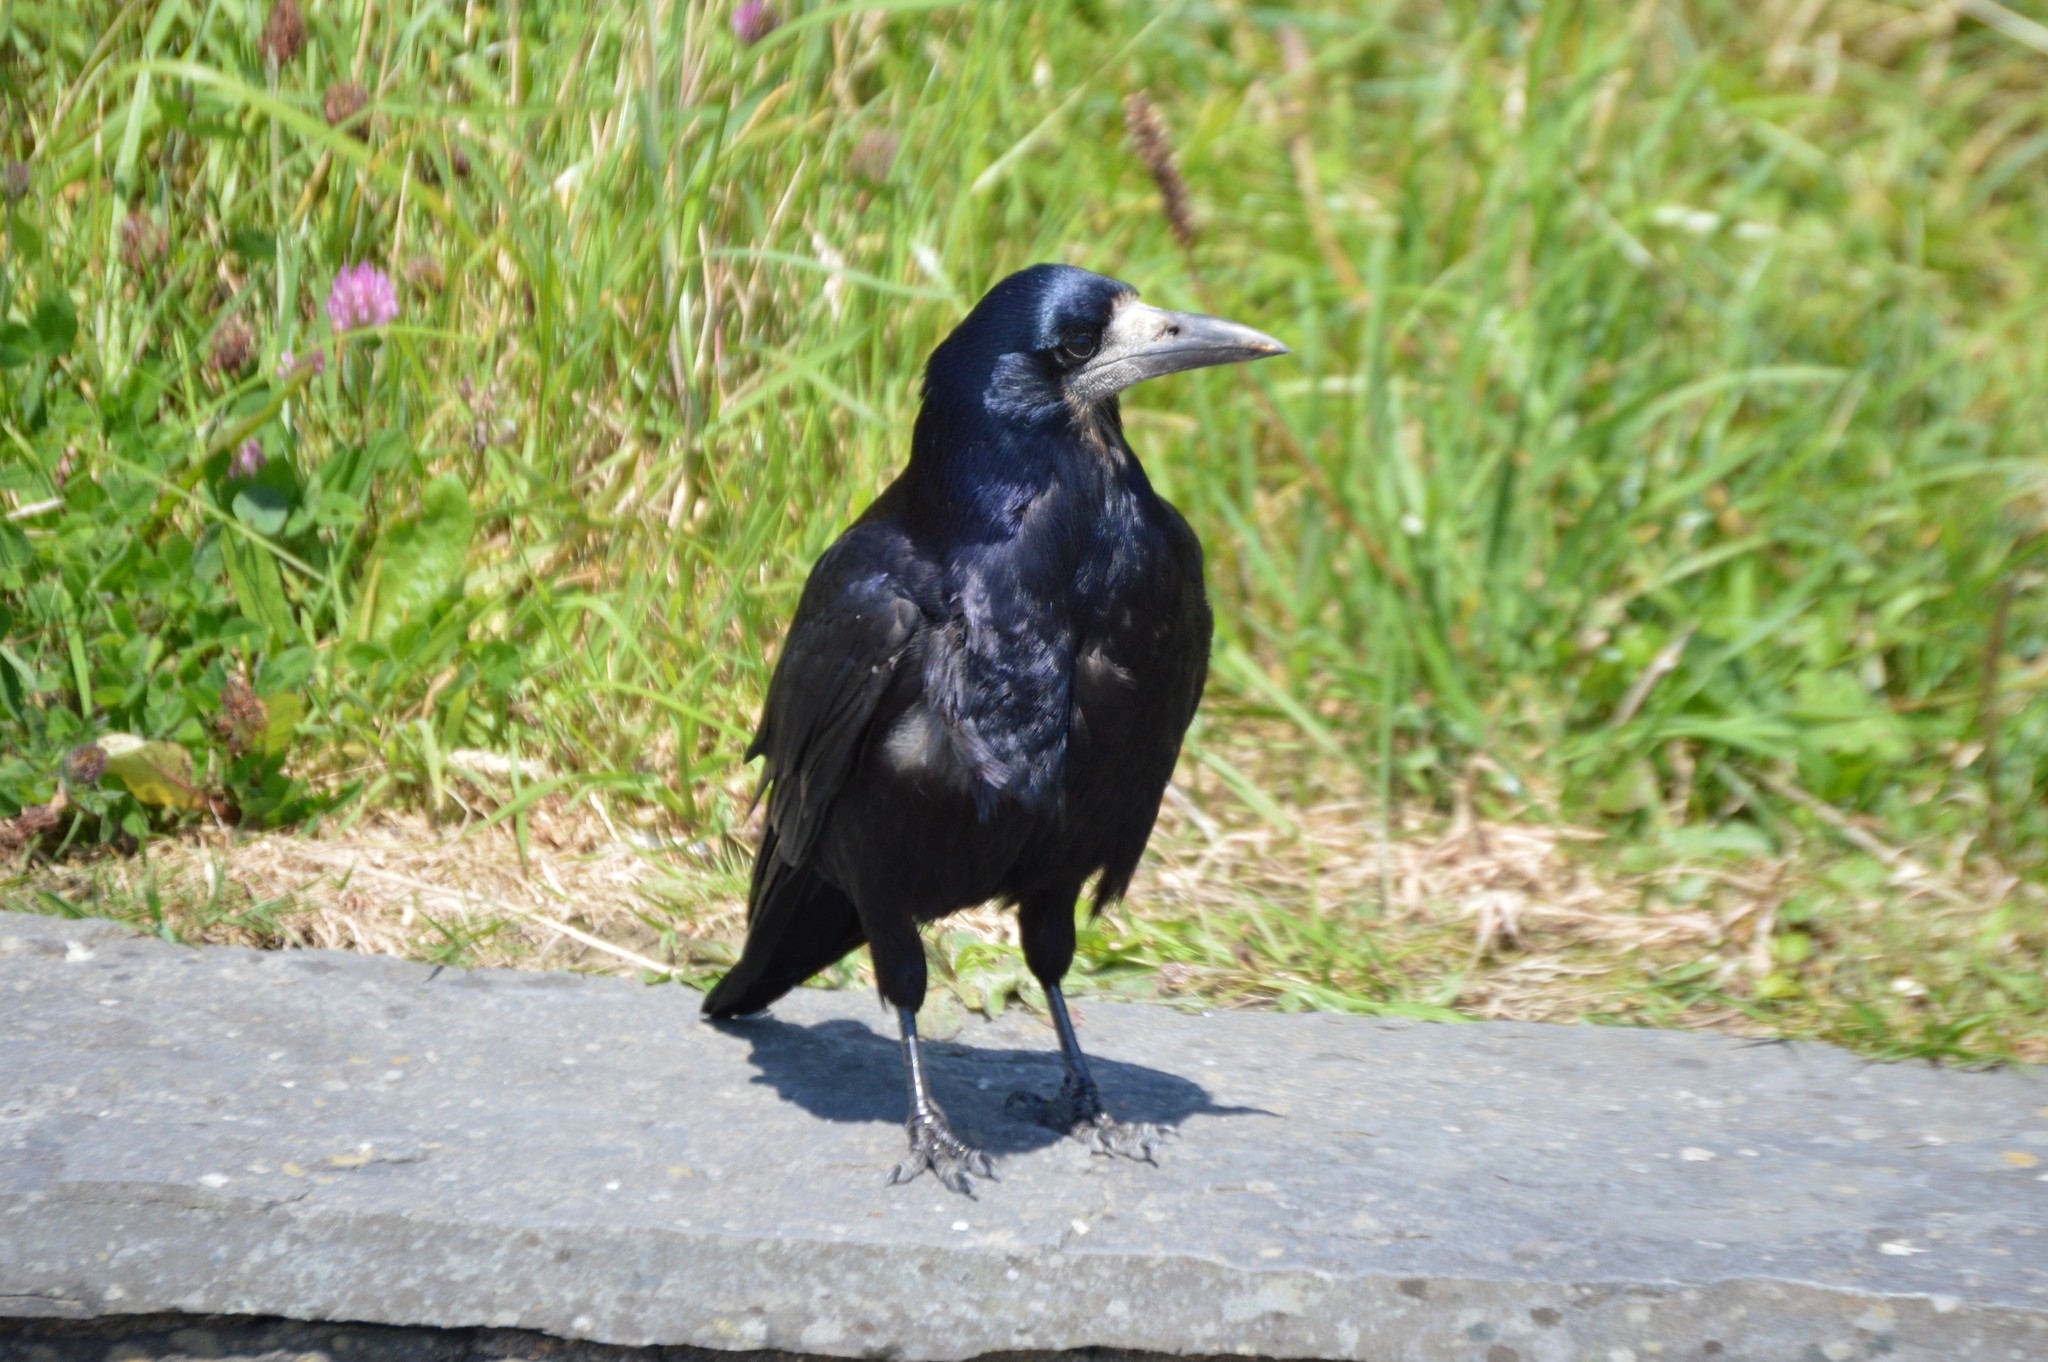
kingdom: Animalia
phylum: Chordata
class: Aves
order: Passeriformes
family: Corvidae
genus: Corvus
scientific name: Corvus frugilegus
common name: Rook
